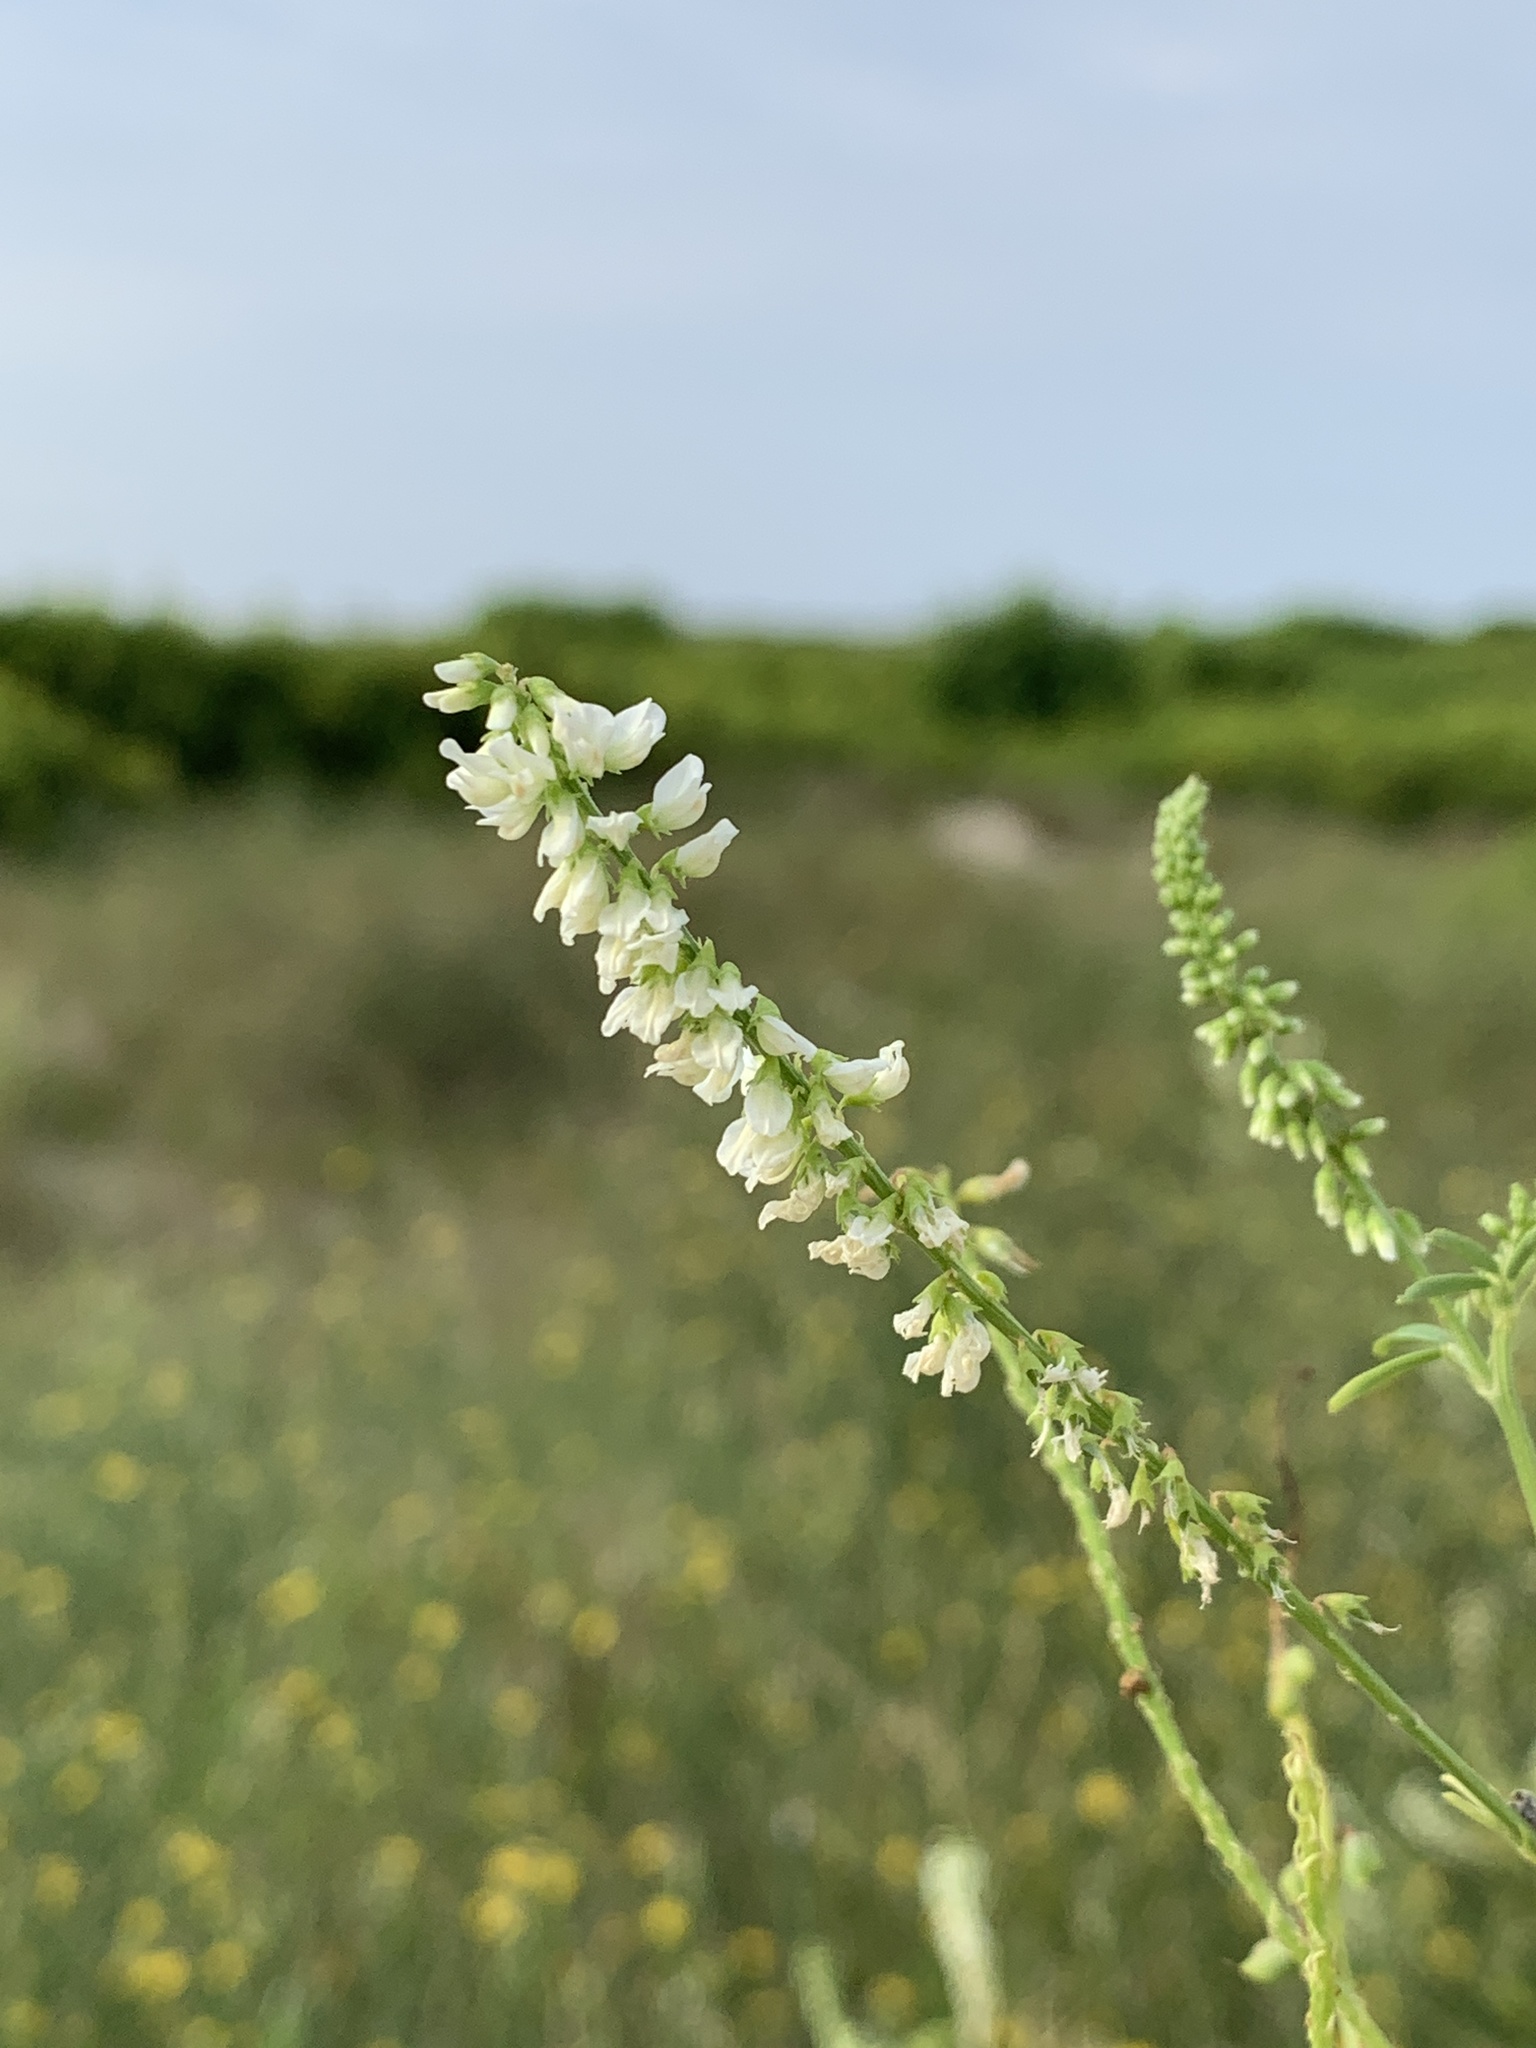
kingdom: Plantae
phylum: Tracheophyta
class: Magnoliopsida
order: Fabales
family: Fabaceae
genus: Melilotus
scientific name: Melilotus albus
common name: White melilot
